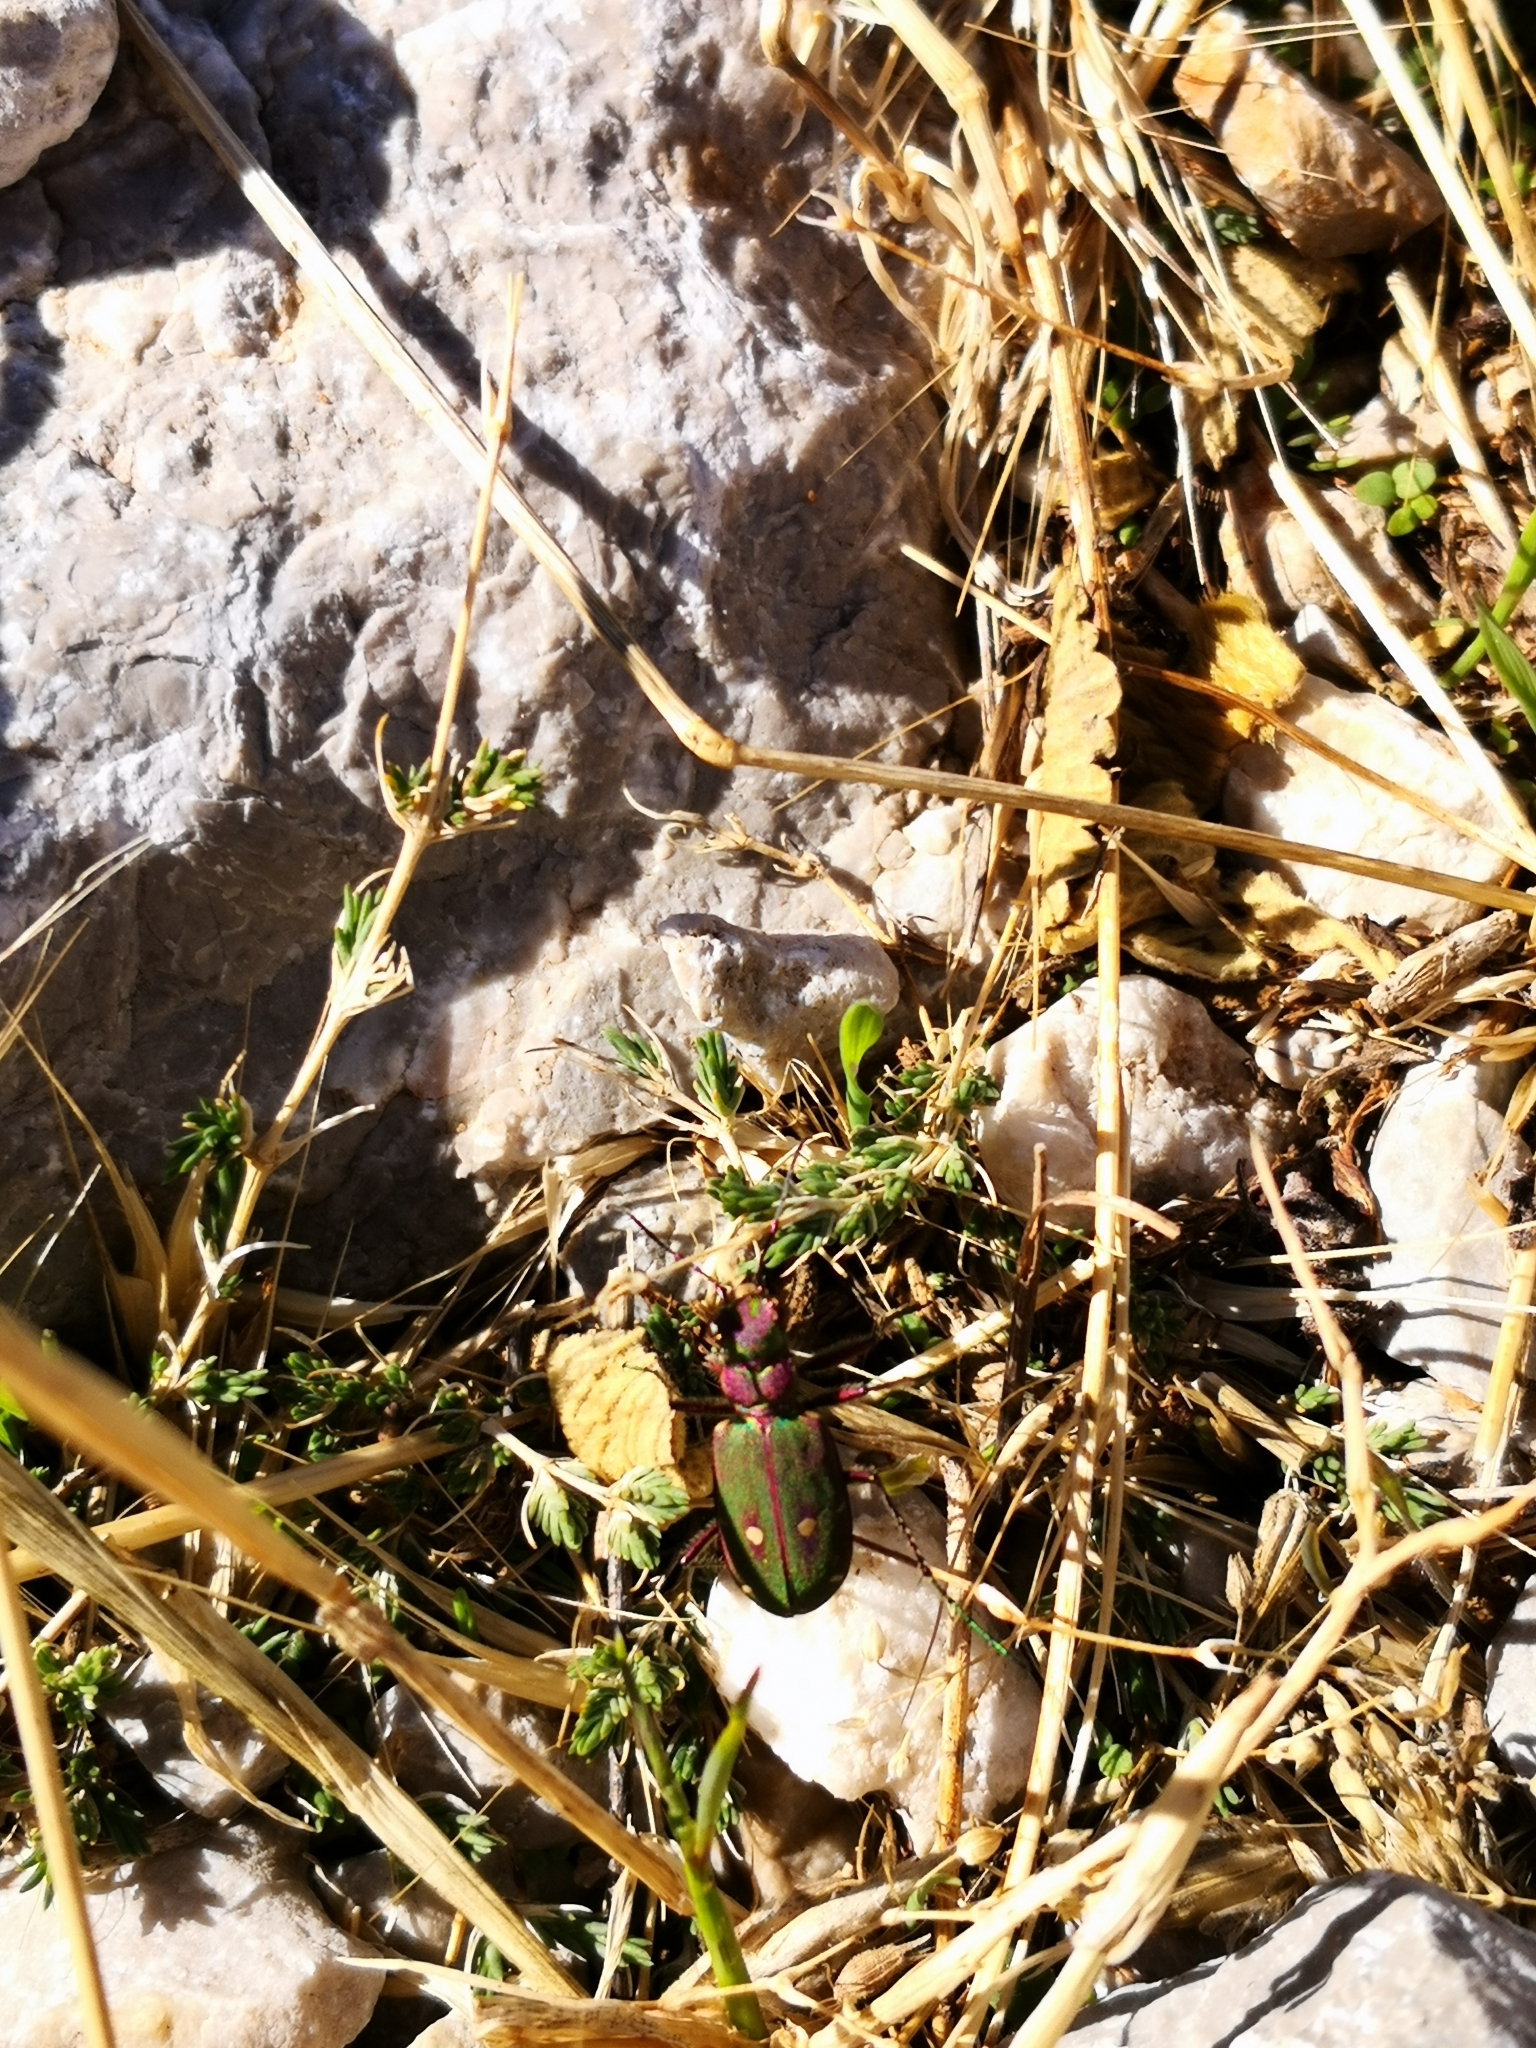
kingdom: Animalia
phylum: Arthropoda
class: Insecta
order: Coleoptera
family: Carabidae
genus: Cicindela
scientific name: Cicindela campestris
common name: Common tiger beetle
